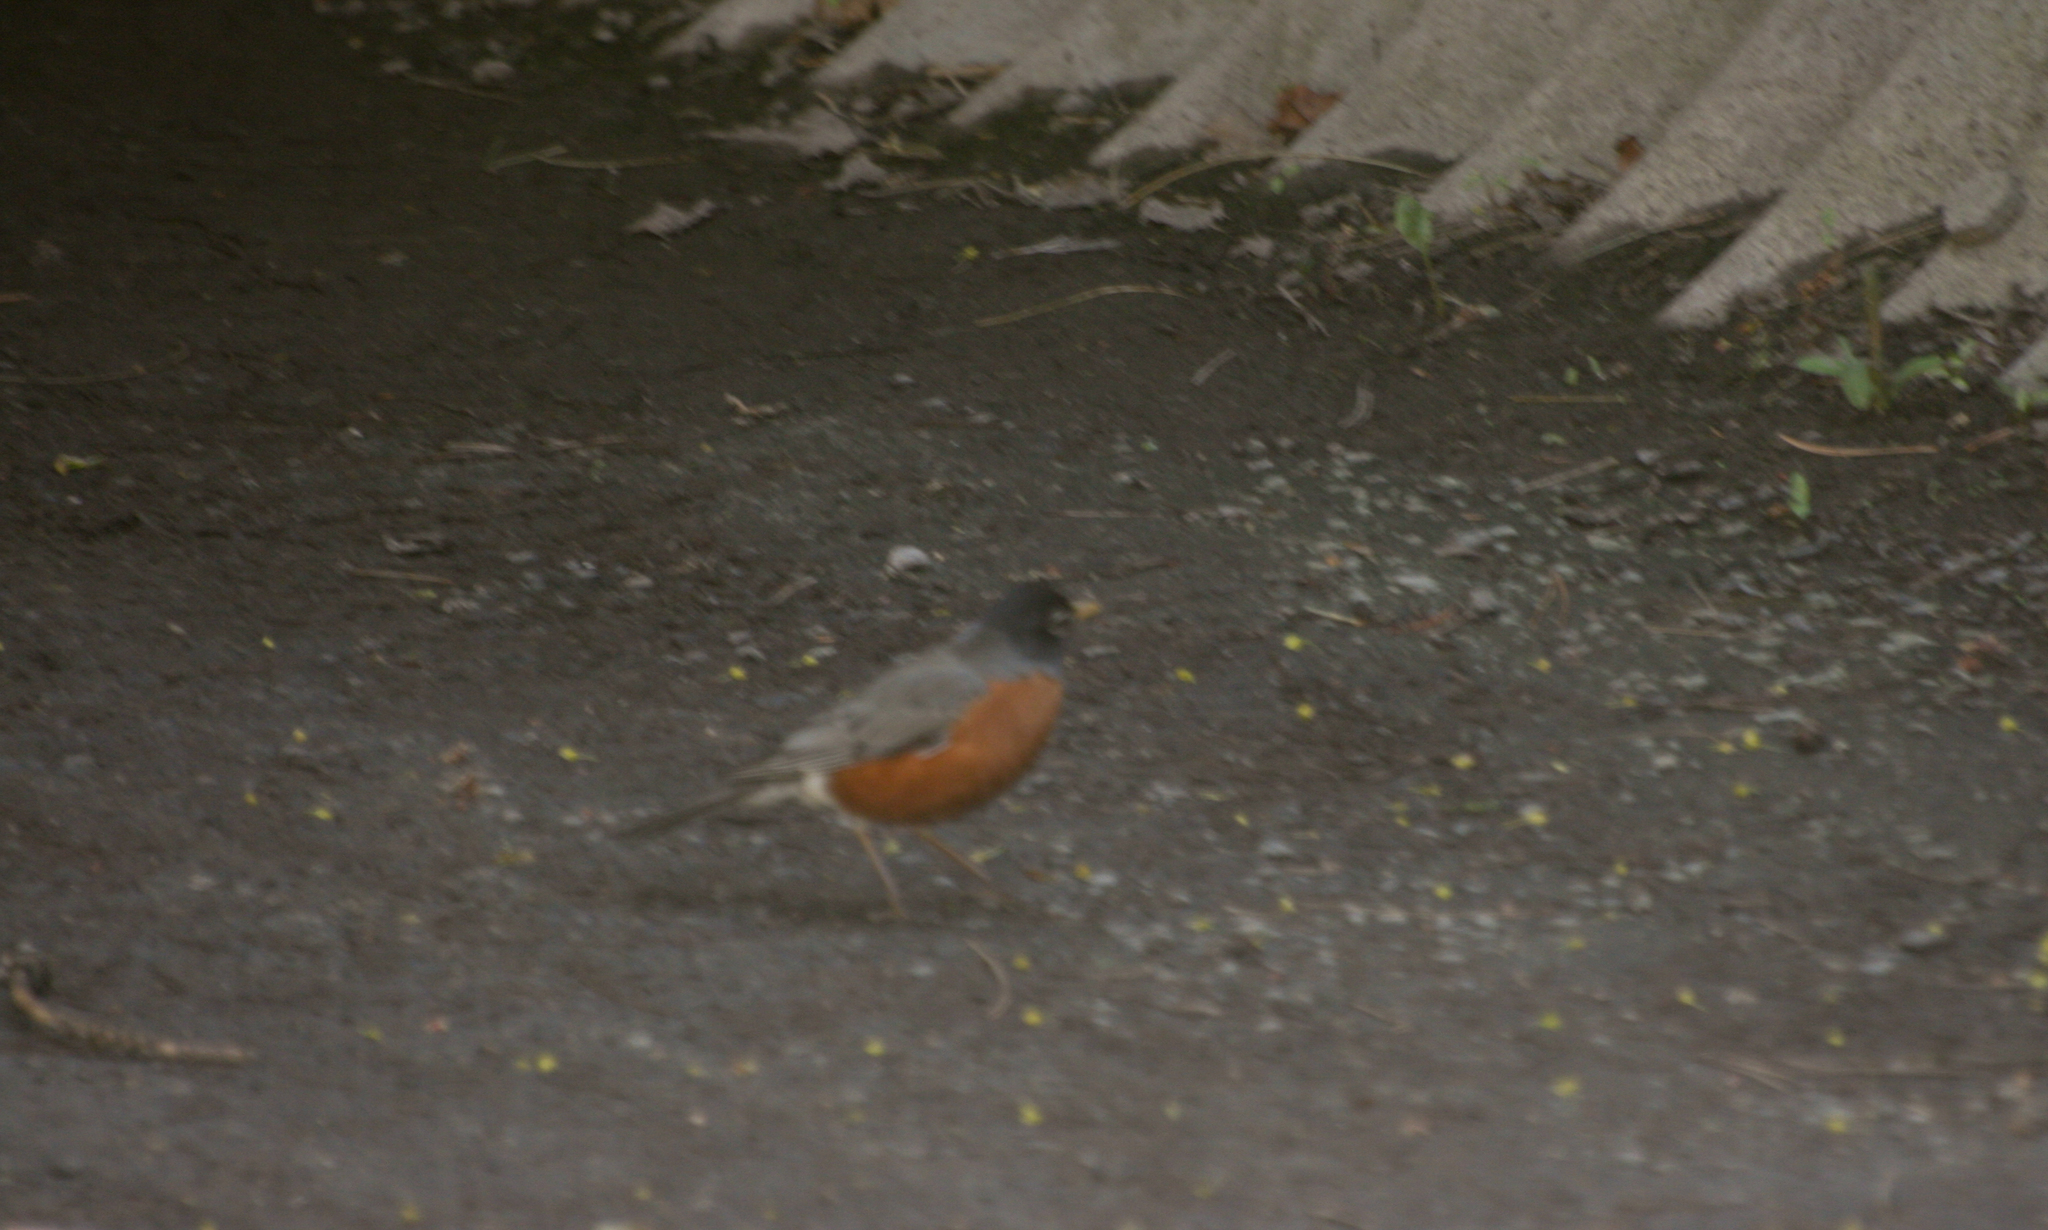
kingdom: Animalia
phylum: Chordata
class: Aves
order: Passeriformes
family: Turdidae
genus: Turdus
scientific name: Turdus migratorius
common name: American robin
